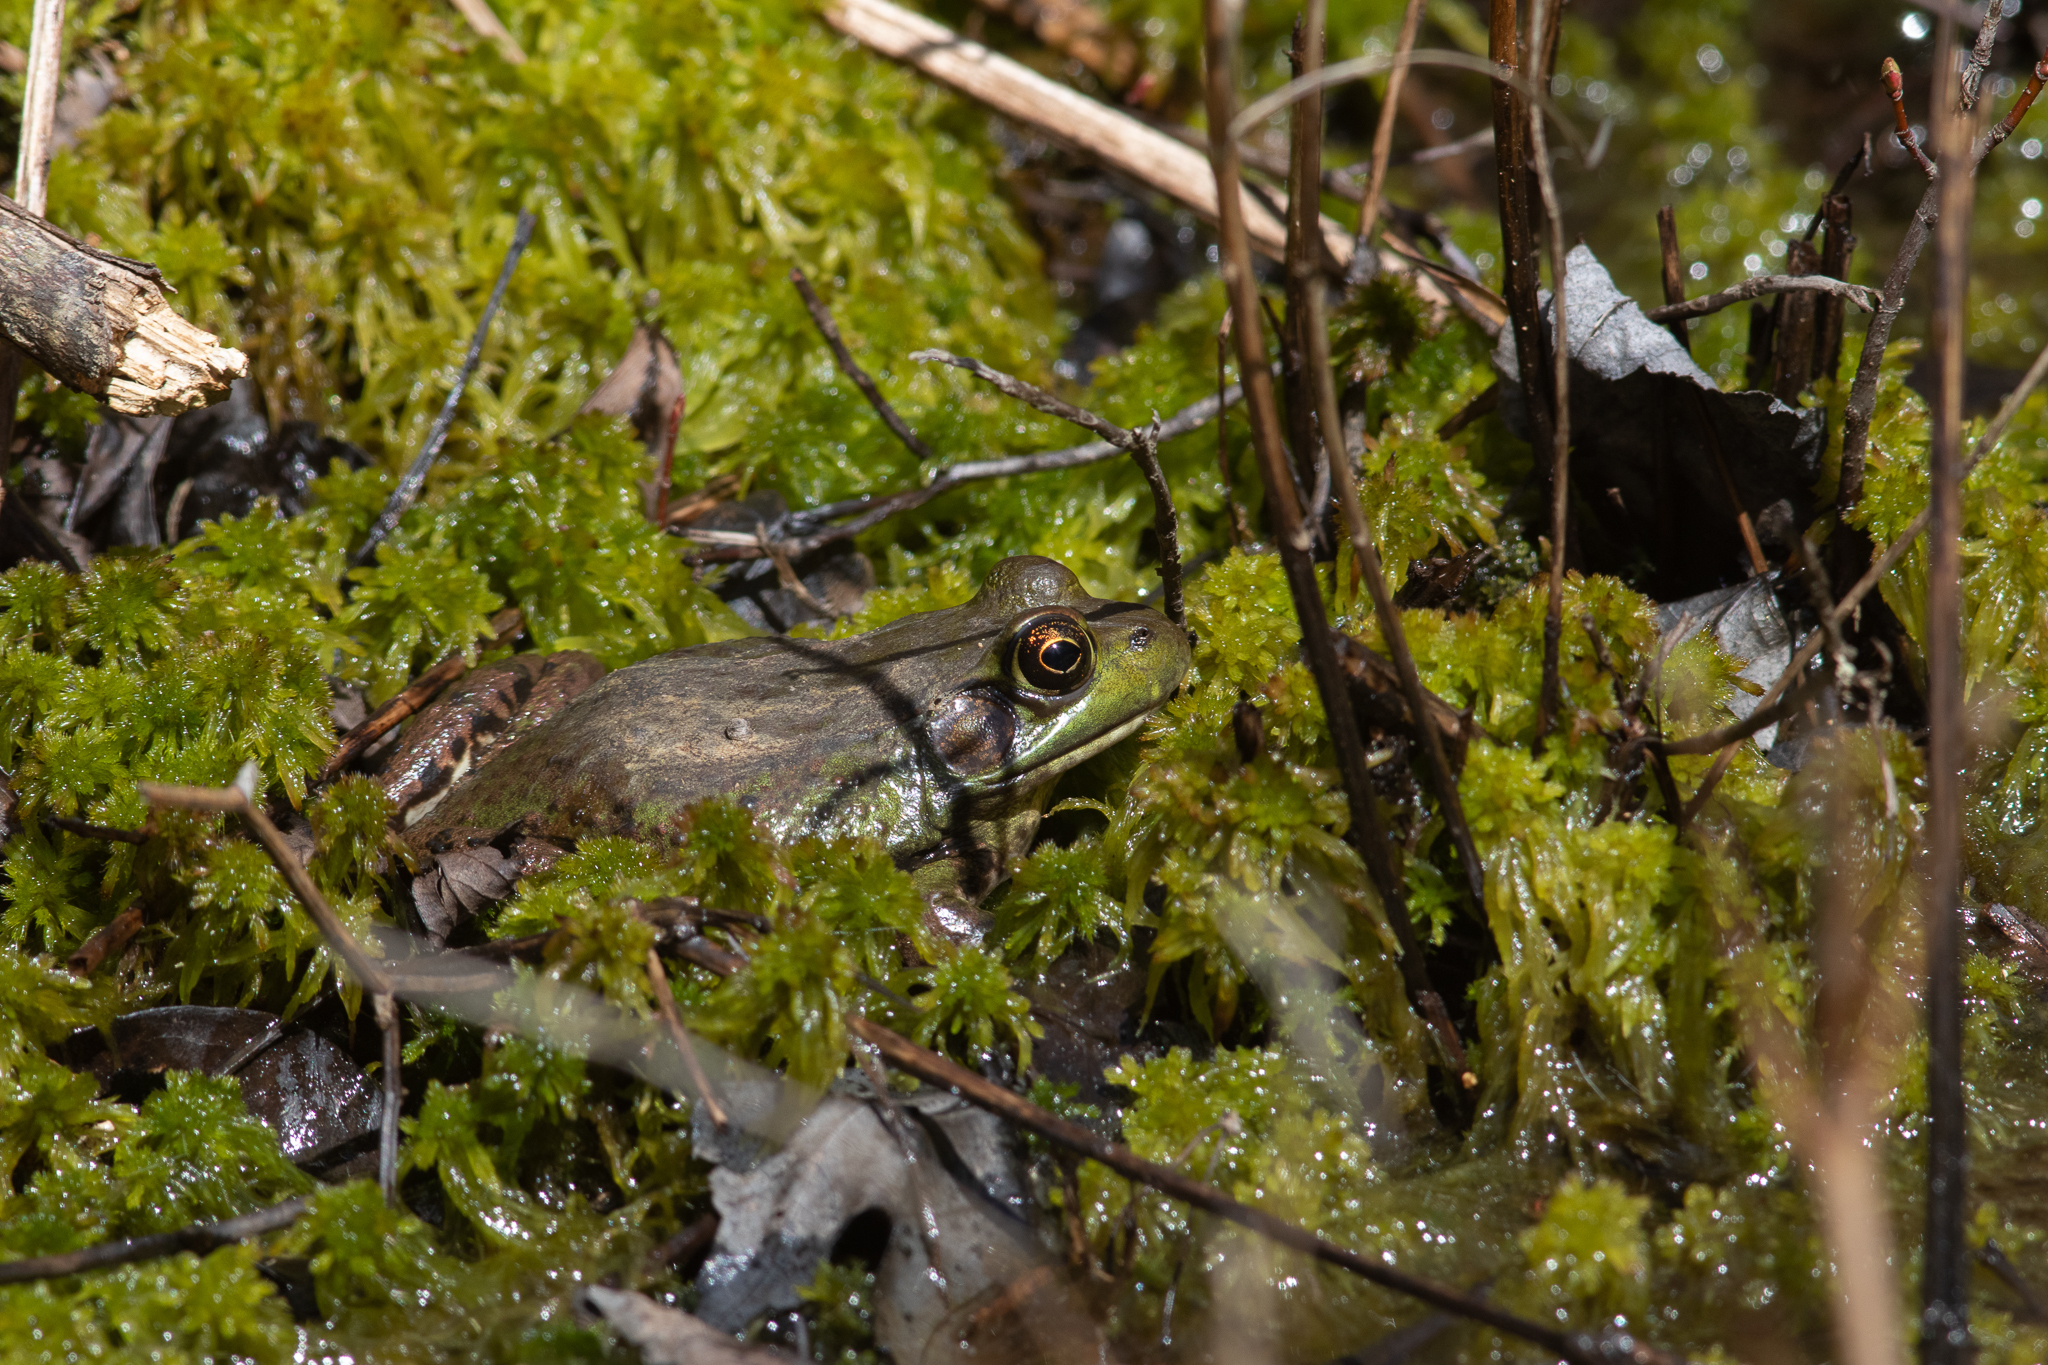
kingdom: Animalia
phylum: Chordata
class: Amphibia
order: Anura
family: Ranidae
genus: Lithobates
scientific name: Lithobates catesbeianus
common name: American bullfrog
